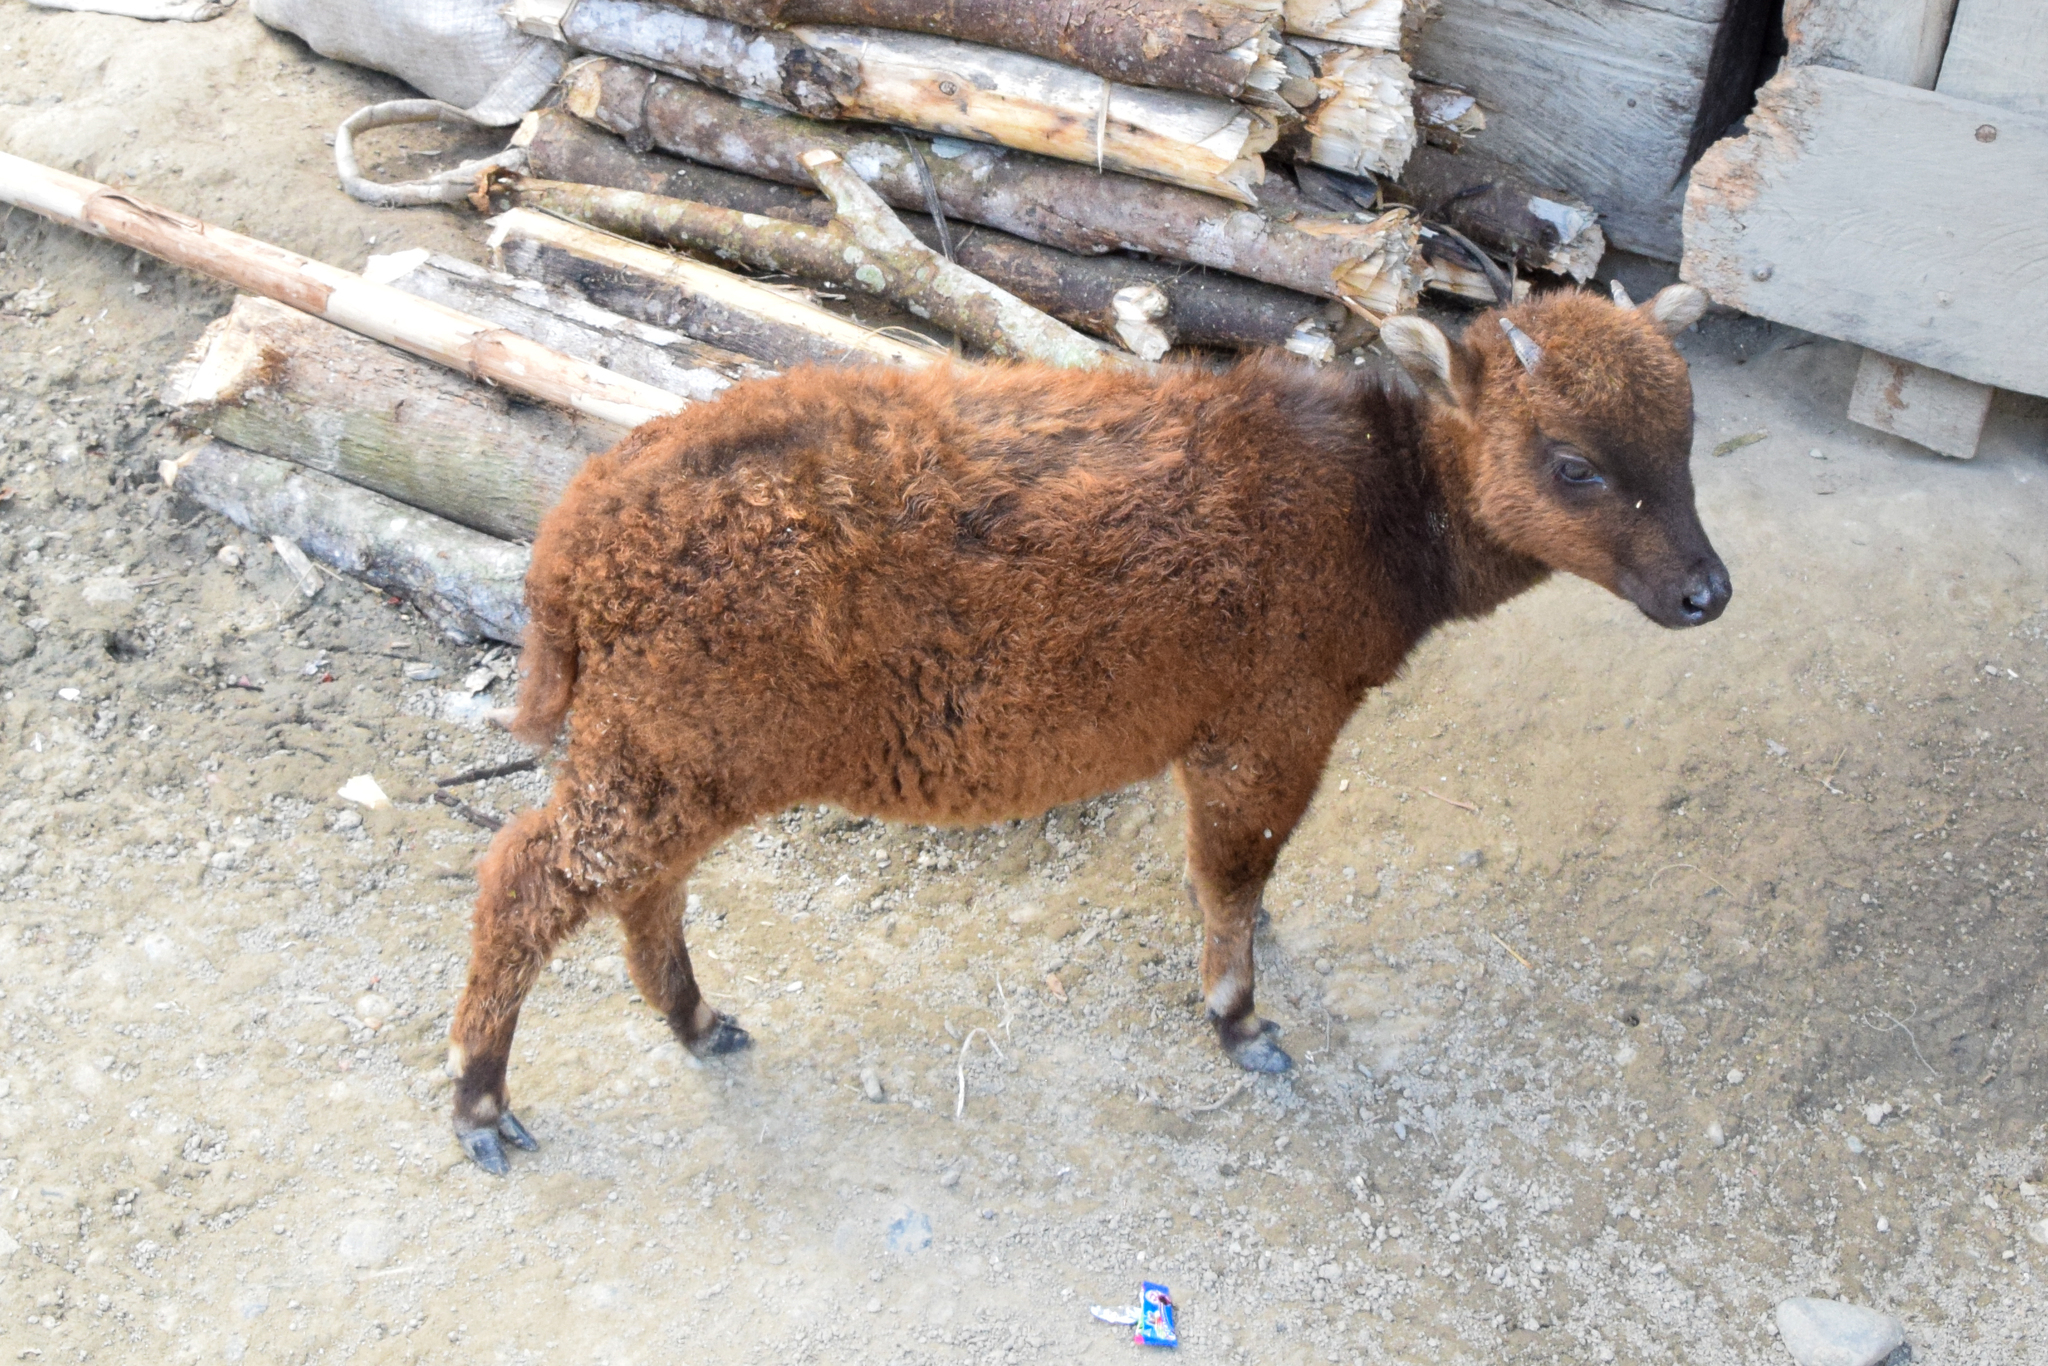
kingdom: Animalia
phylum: Chordata
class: Mammalia
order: Artiodactyla
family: Bovidae
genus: Bubalus
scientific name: Bubalus quarlesi
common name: Mountain anoa
